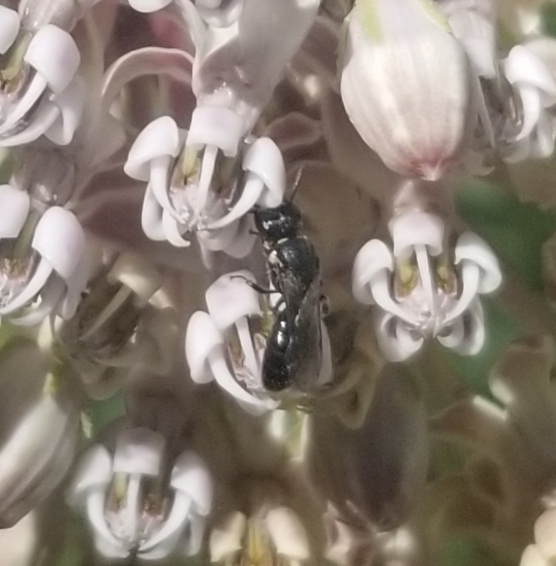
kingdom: Animalia
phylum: Arthropoda
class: Insecta
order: Hymenoptera
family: Colletidae
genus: Hylaeus
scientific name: Hylaeus
